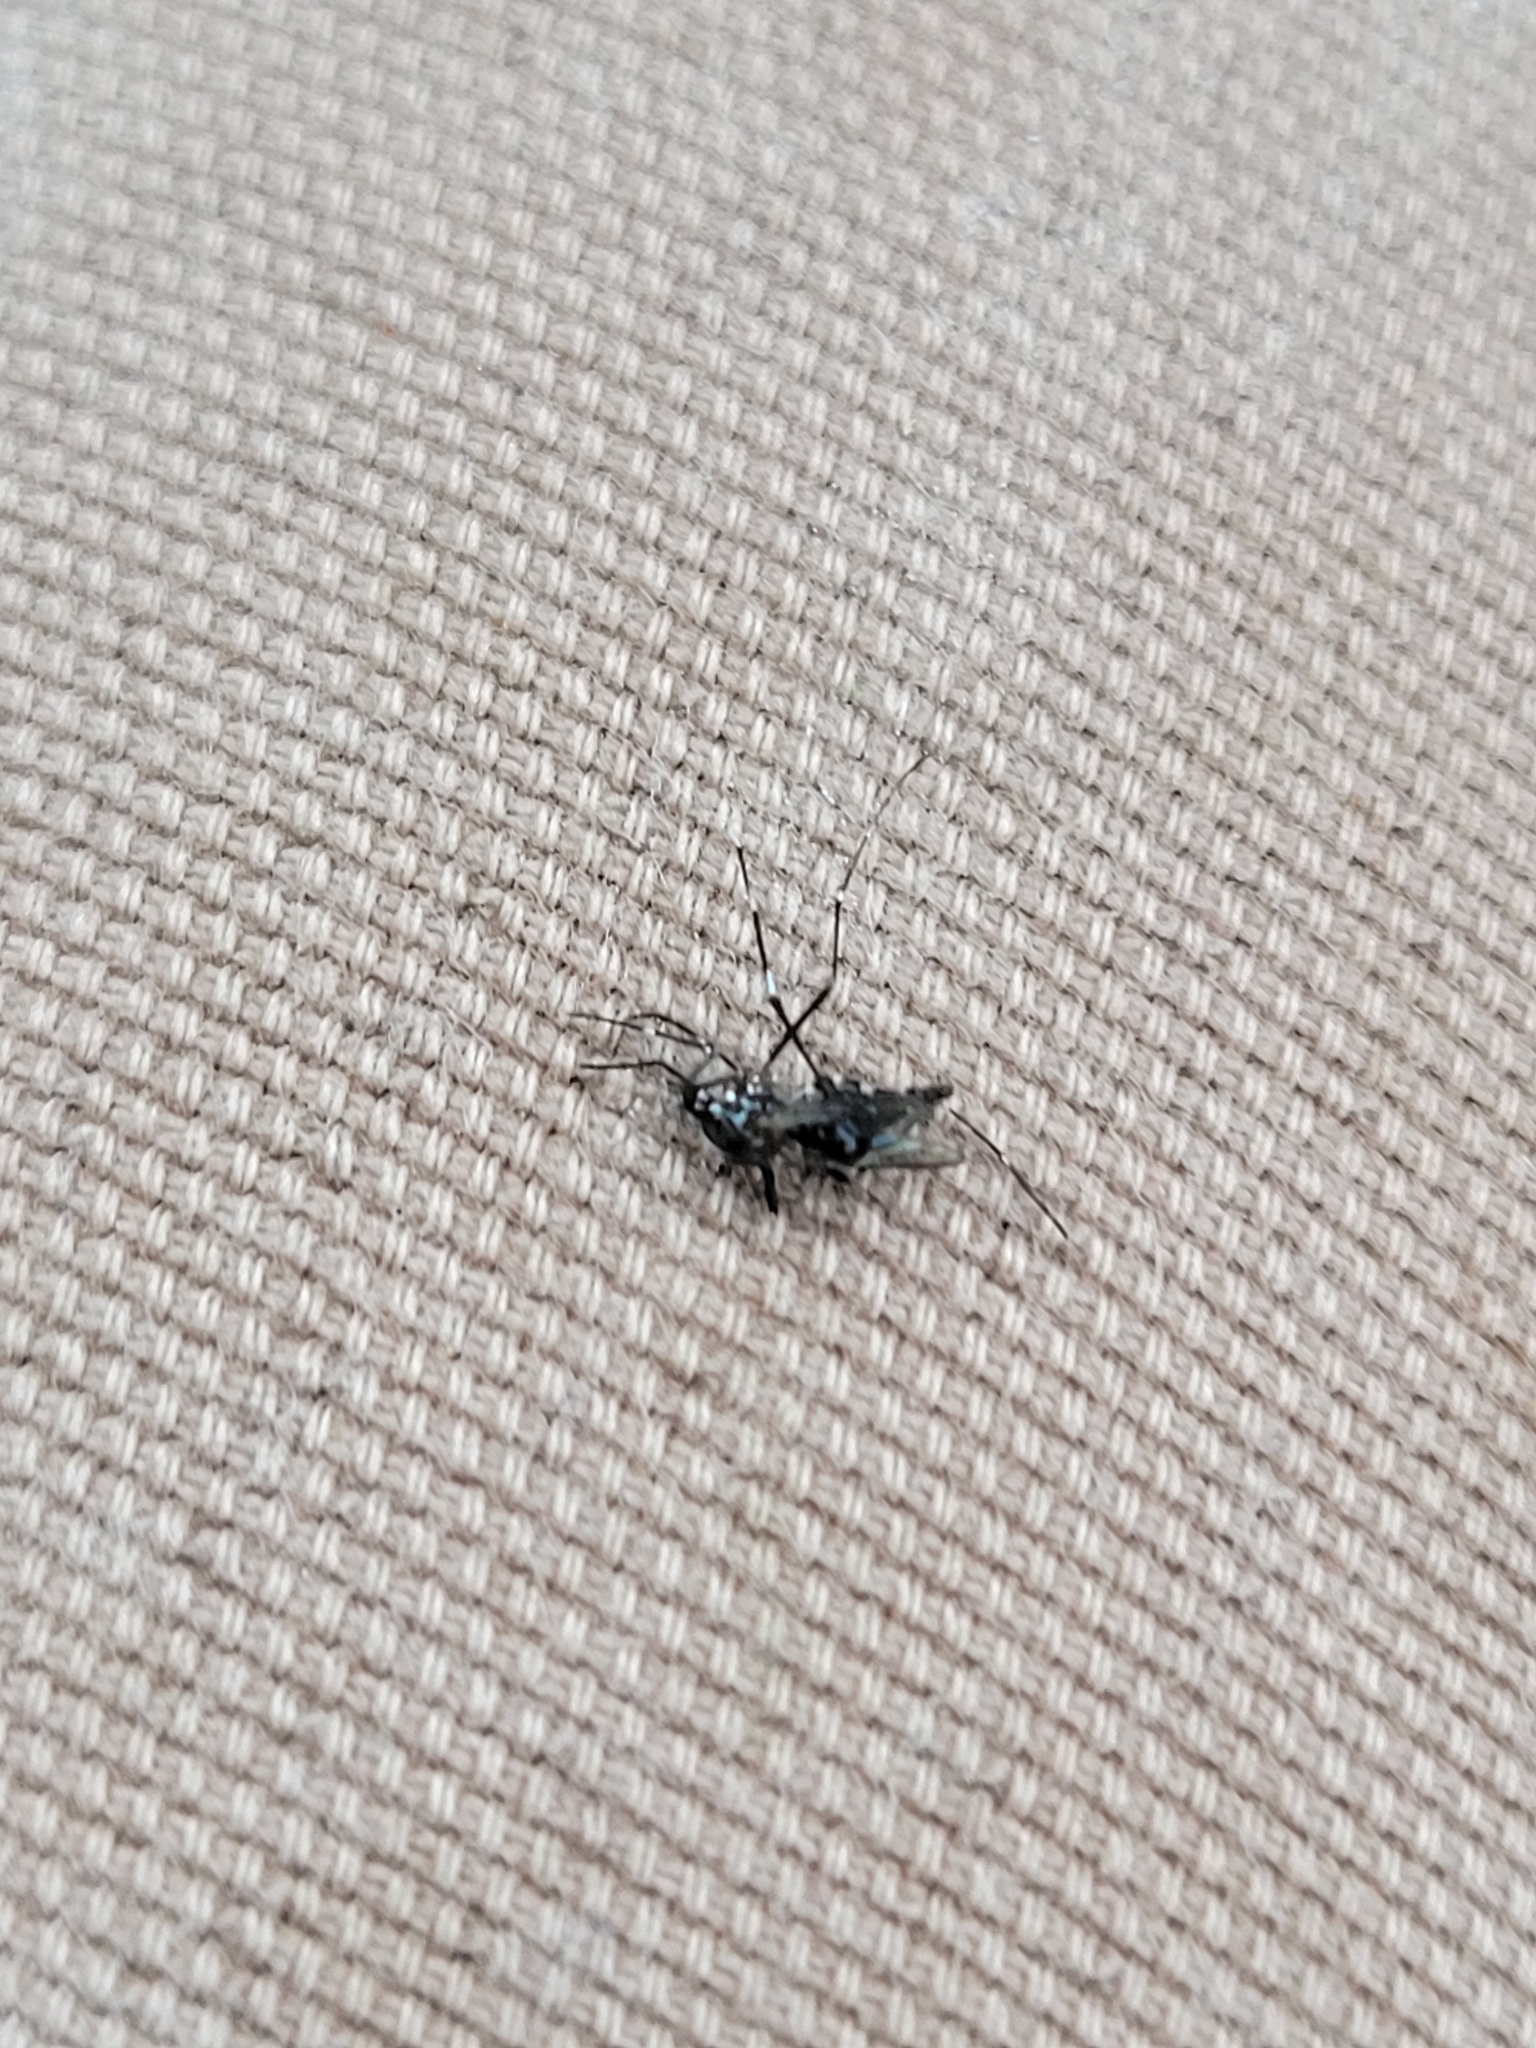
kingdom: Animalia
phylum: Arthropoda
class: Insecta
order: Diptera
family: Culicidae
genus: Aedes
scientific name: Aedes albopictus
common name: Tiger mosquito
